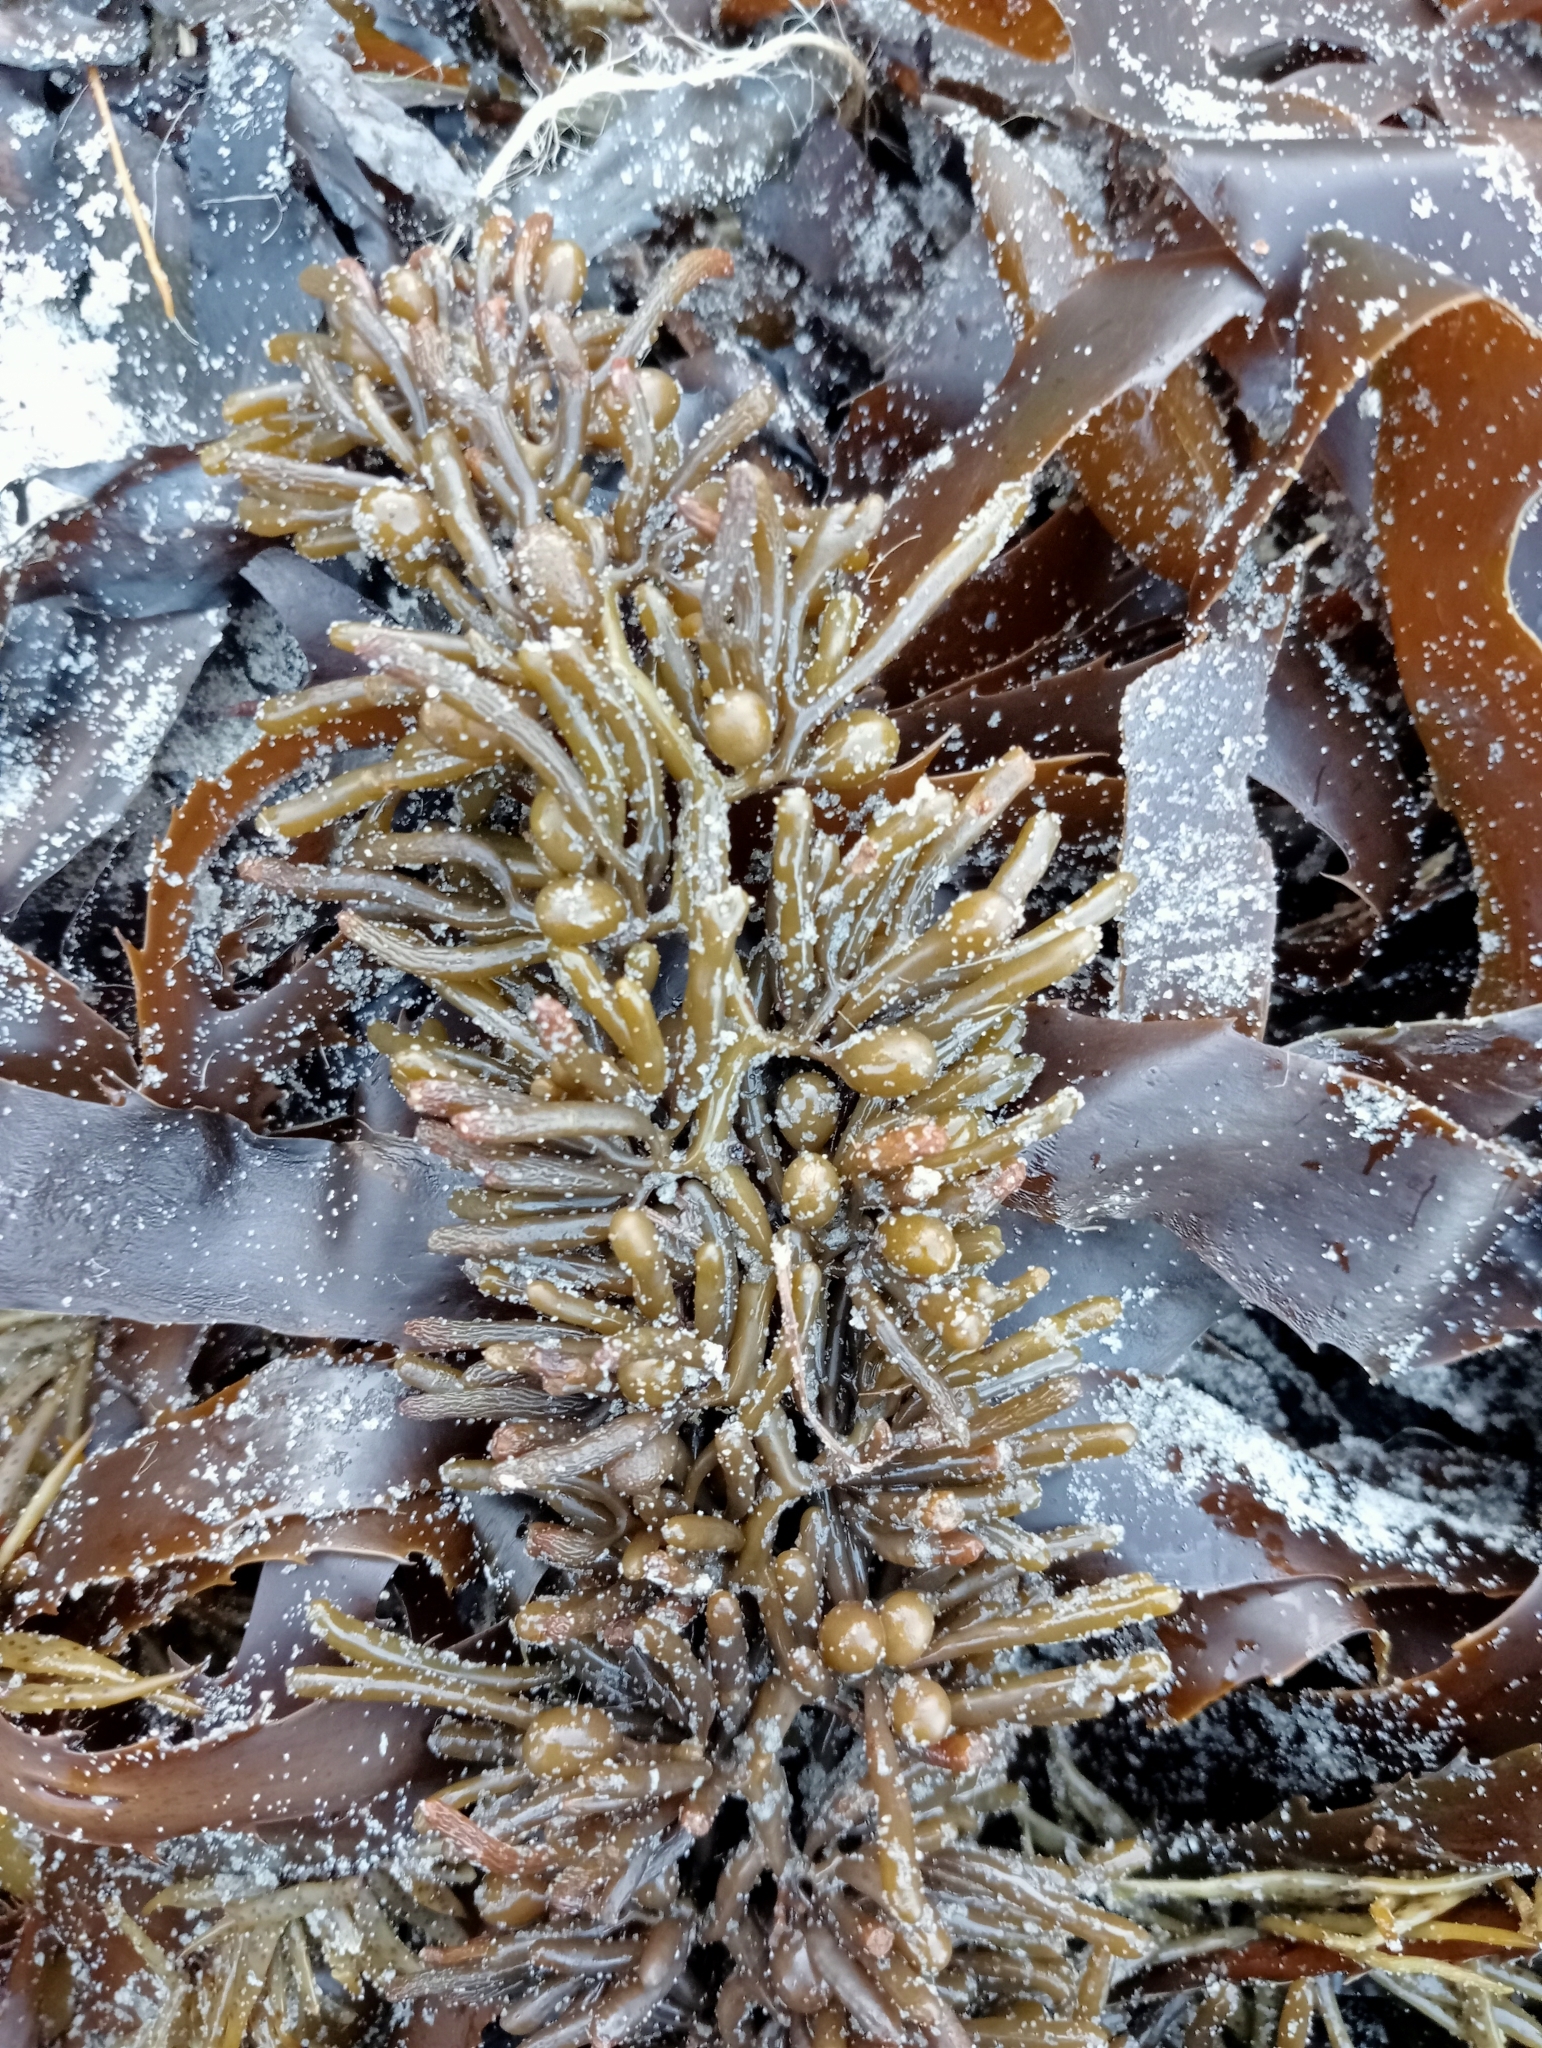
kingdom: Chromista
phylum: Ochrophyta
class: Phaeophyceae
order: Fucales
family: Sargassaceae
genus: Cystophora
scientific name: Cystophora torulosa
